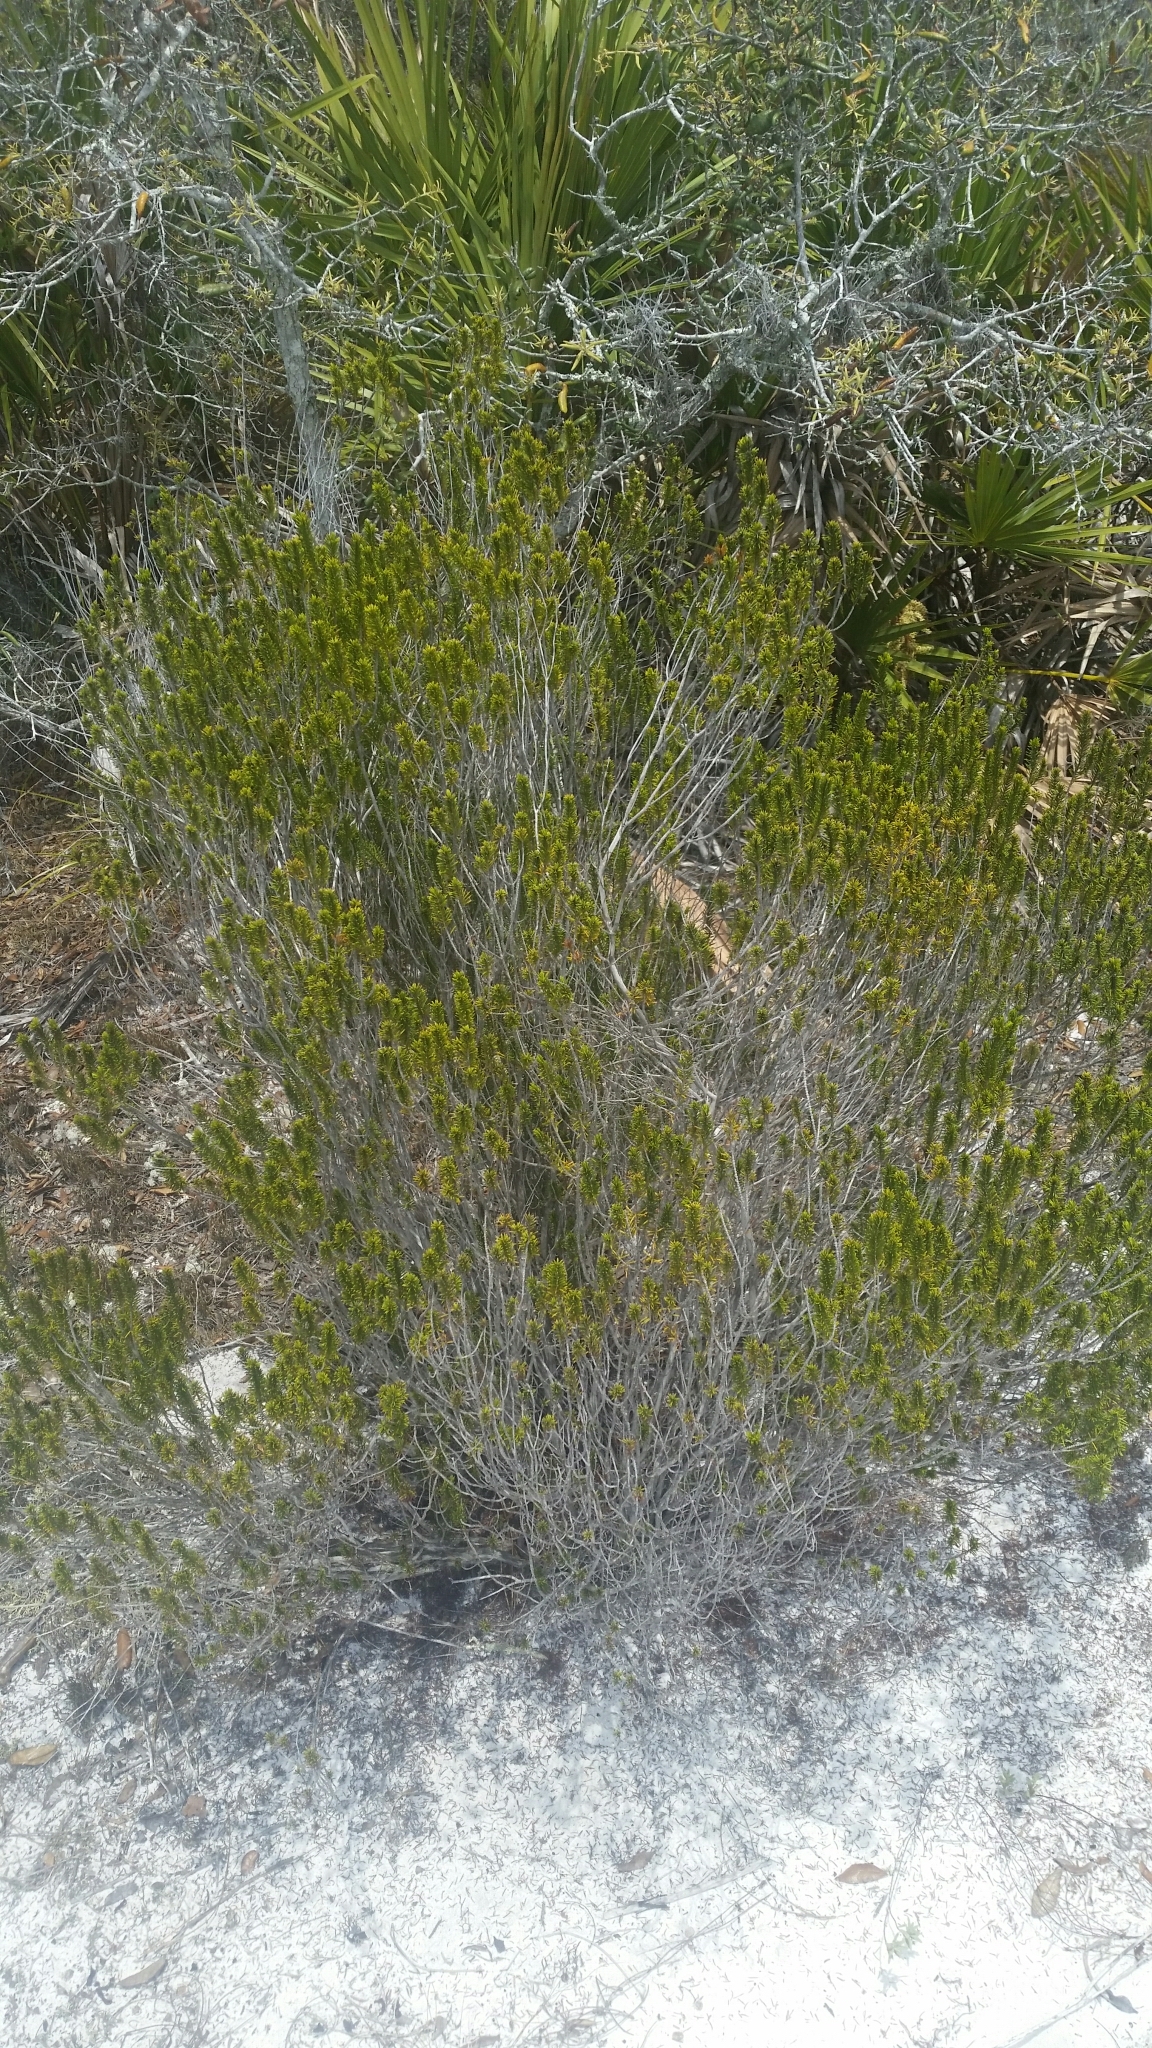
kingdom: Plantae
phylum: Tracheophyta
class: Magnoliopsida
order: Ericales
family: Ericaceae
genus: Ceratiola
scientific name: Ceratiola ericoides
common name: Sandhill-rosemary
